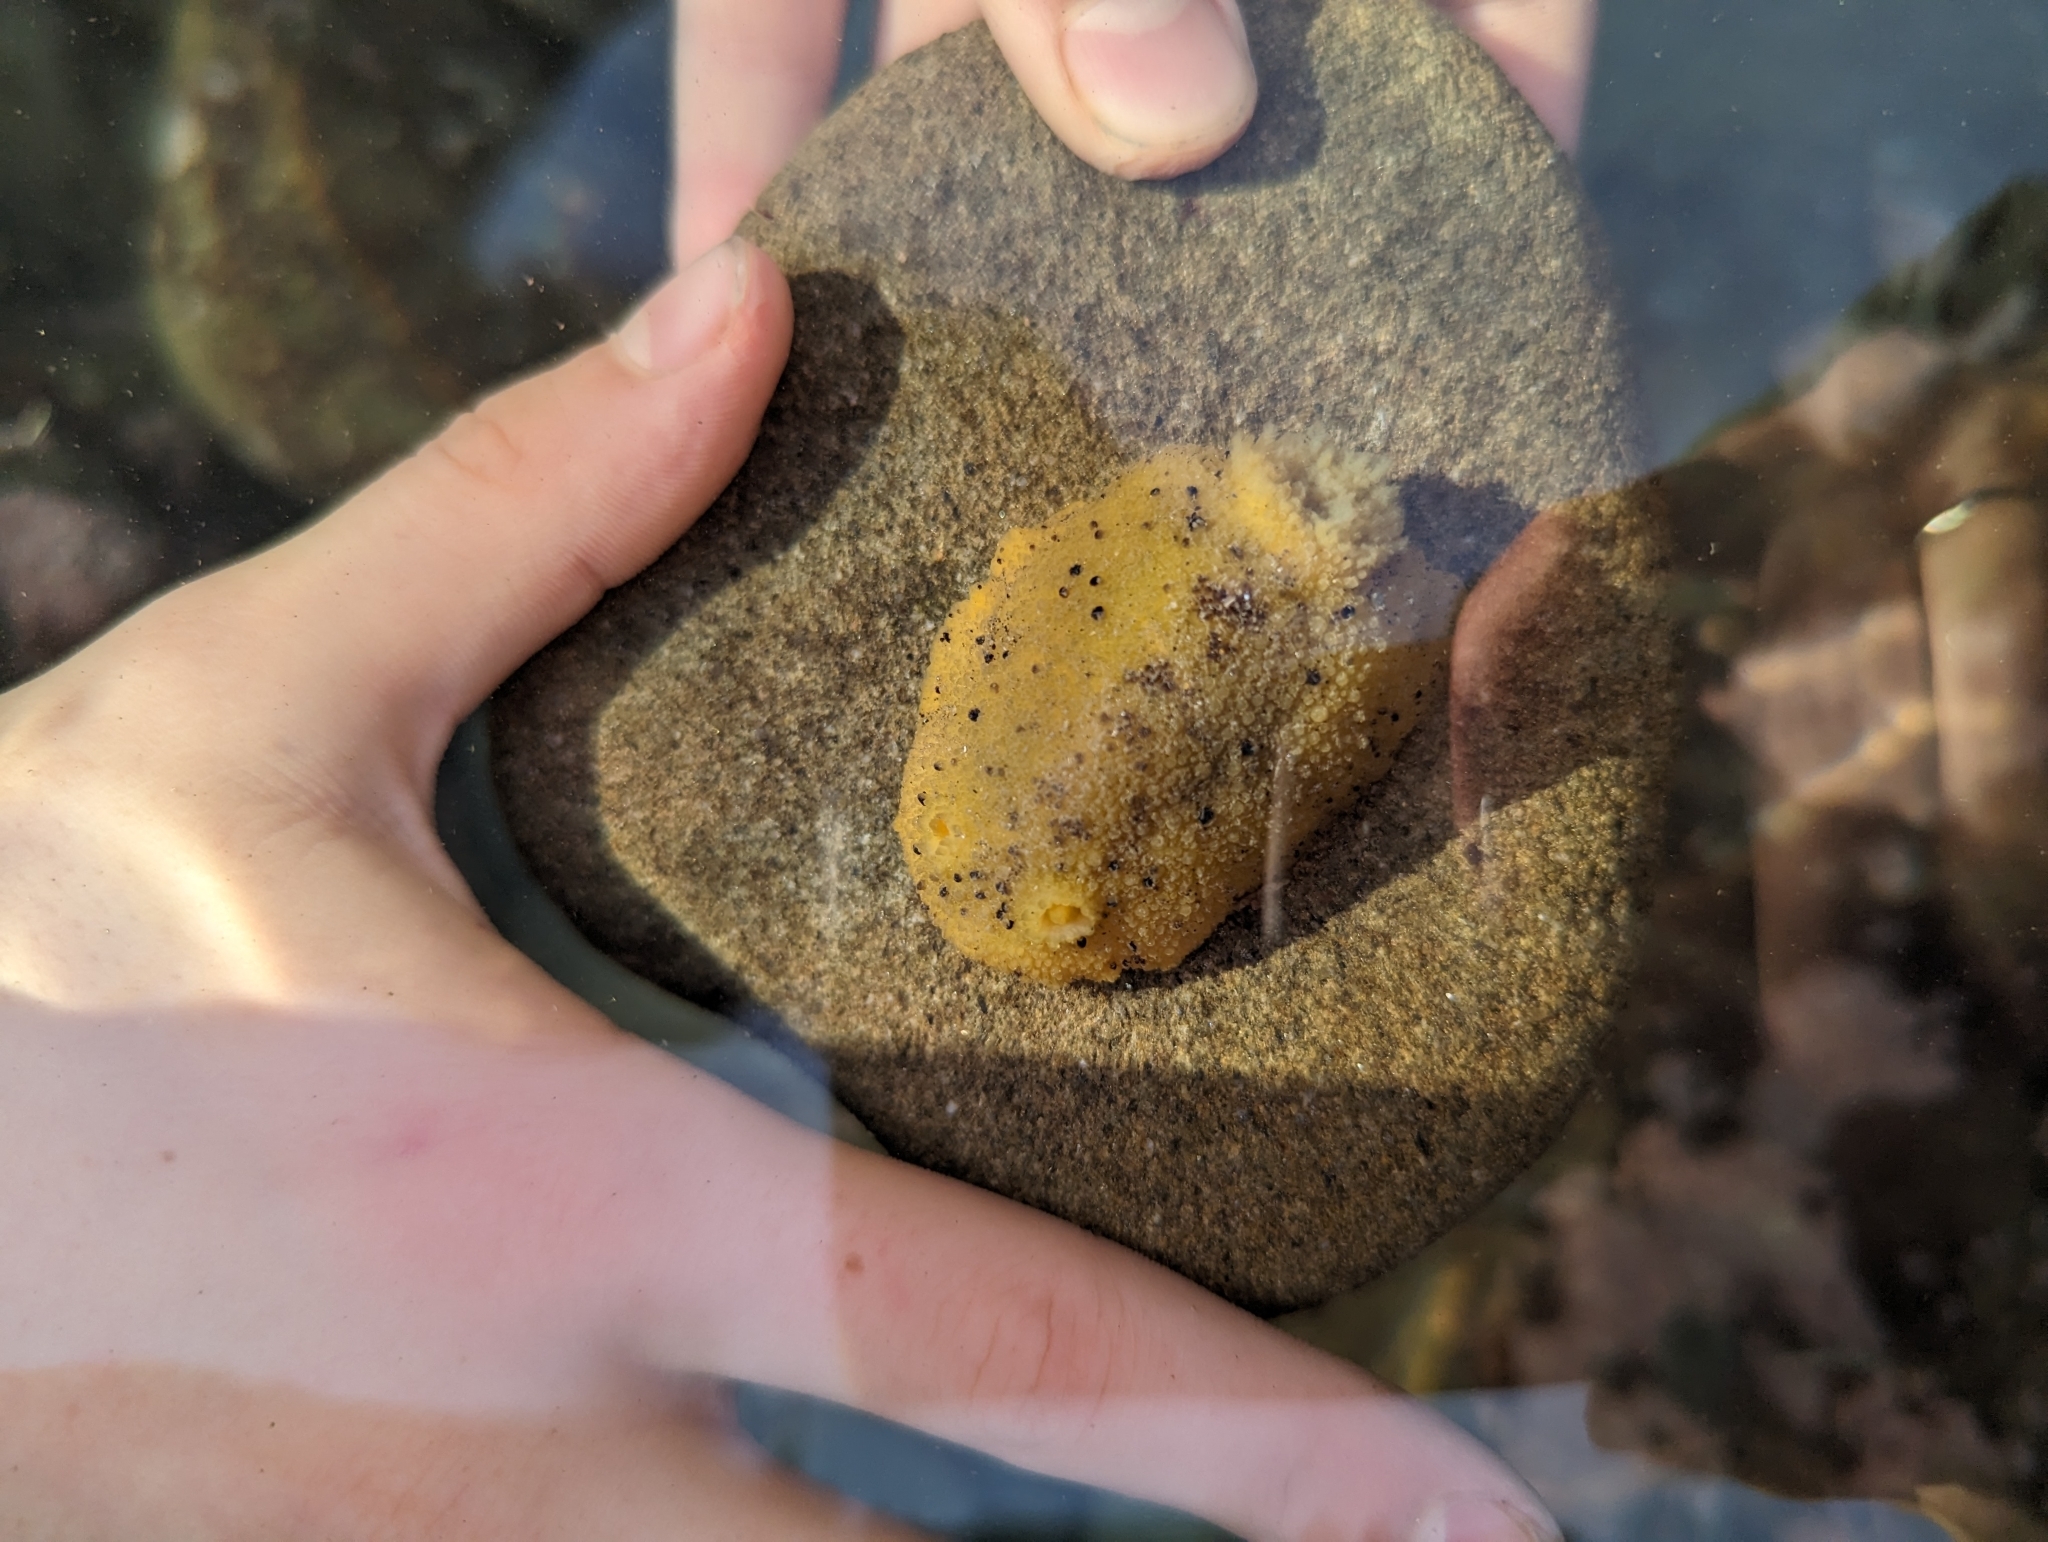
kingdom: Animalia
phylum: Mollusca
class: Gastropoda
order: Nudibranchia
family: Dorididae
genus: Doris
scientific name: Doris montereyensis
